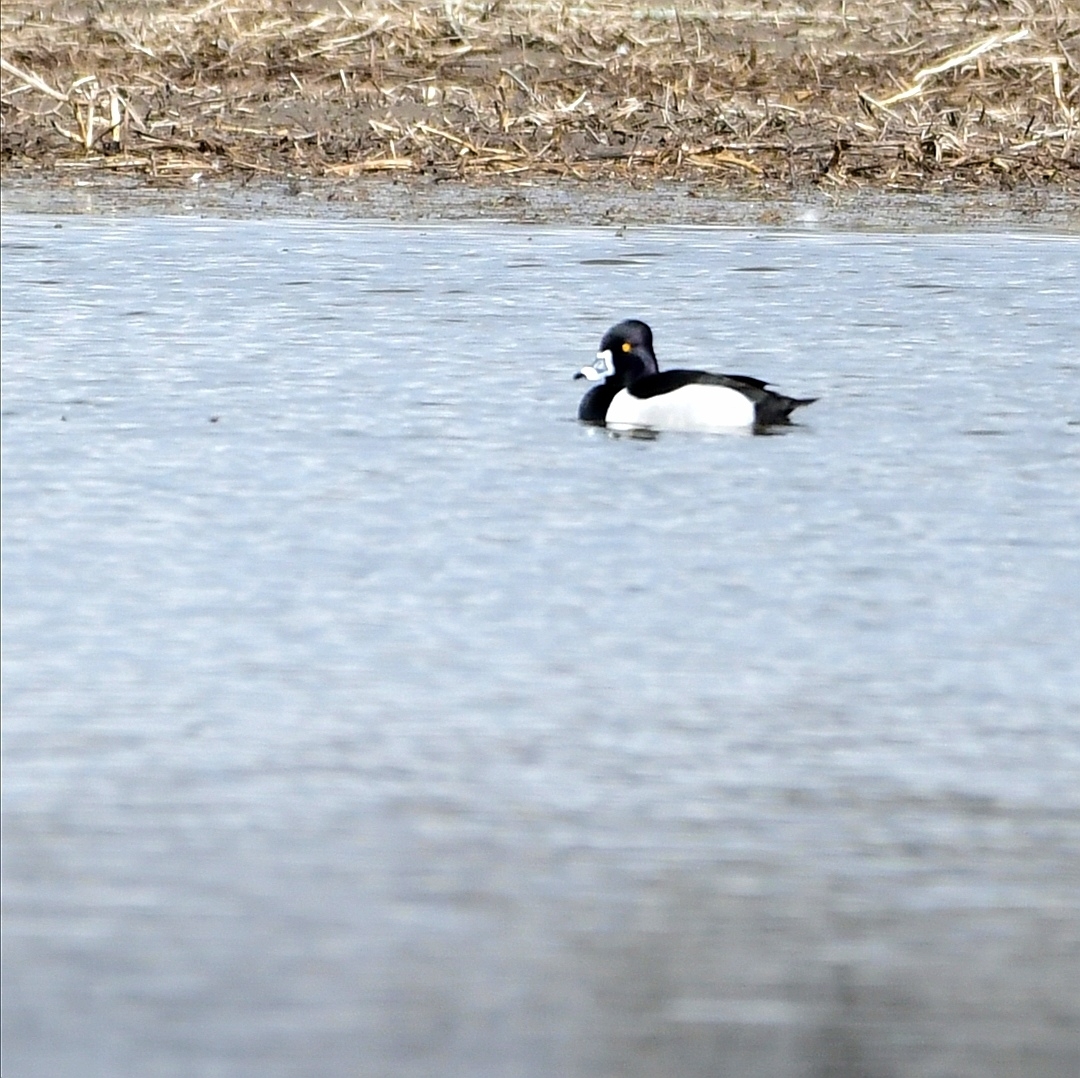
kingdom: Animalia
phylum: Chordata
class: Aves
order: Anseriformes
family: Anatidae
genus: Aythya
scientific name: Aythya collaris
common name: Ring-necked duck
